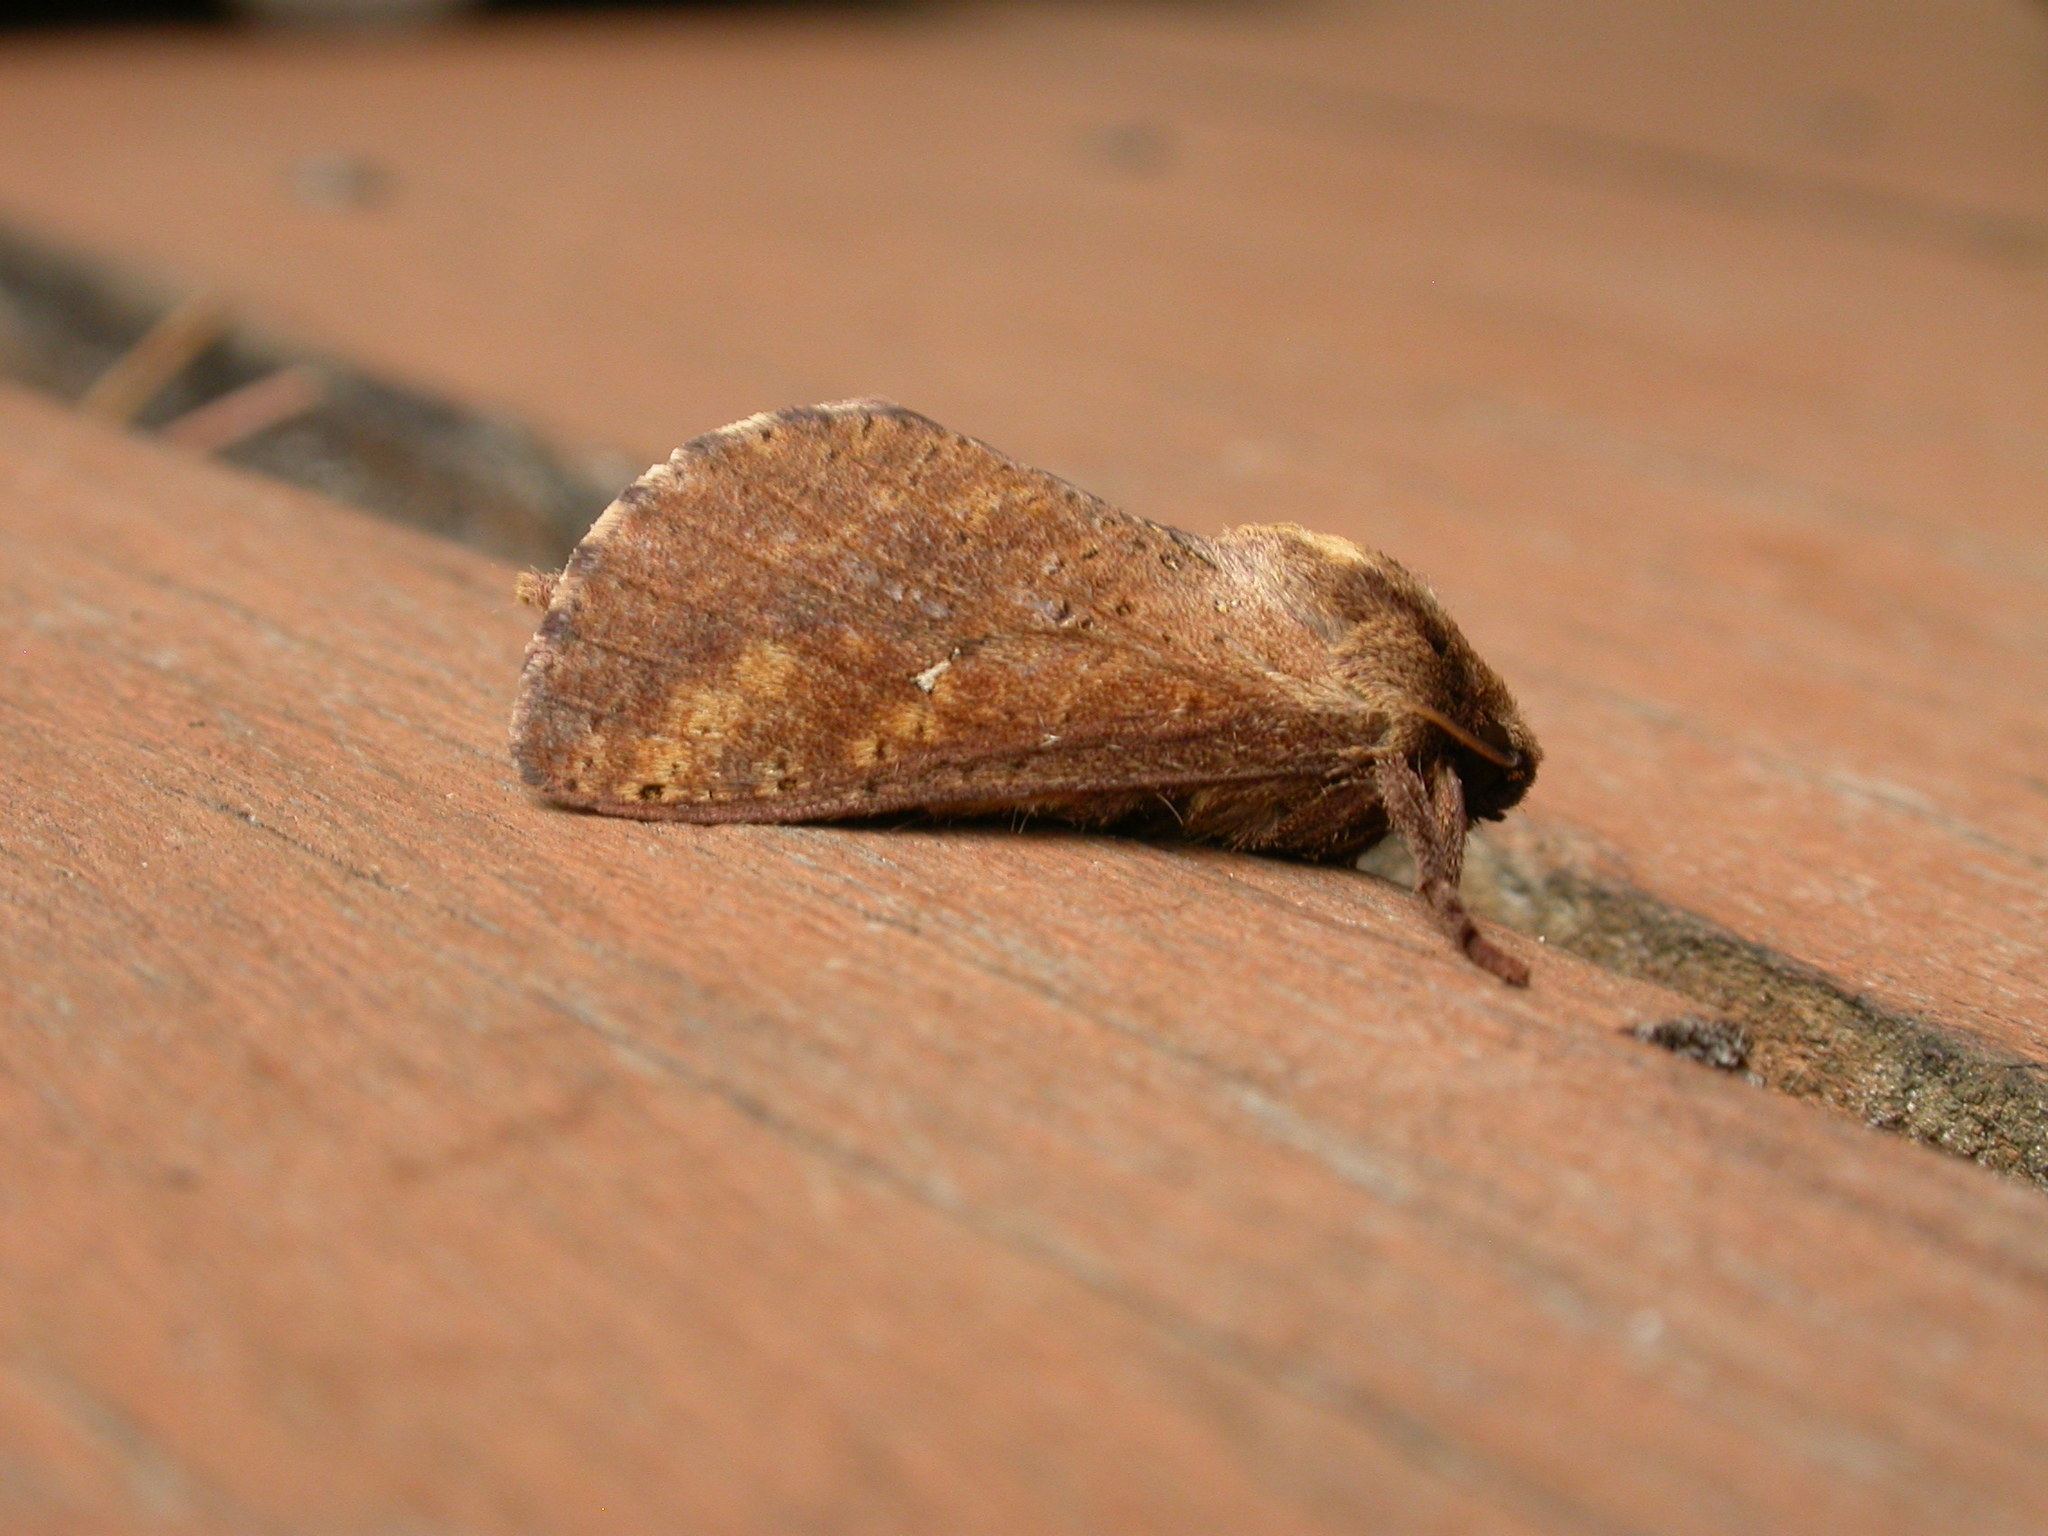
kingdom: Animalia
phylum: Arthropoda
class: Insecta
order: Lepidoptera
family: Hepialidae
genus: Elhamma
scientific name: Elhamma australasiae
